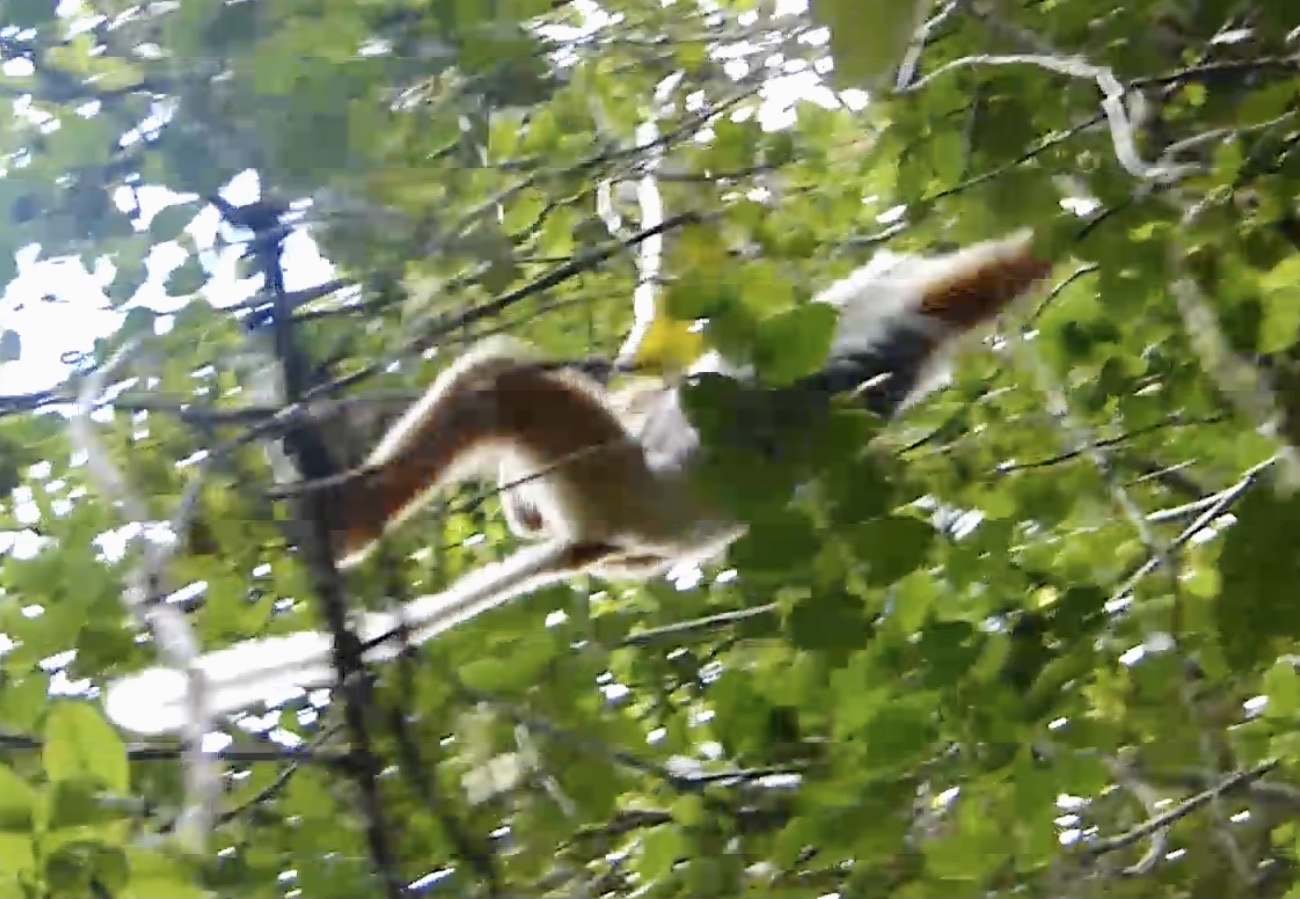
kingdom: Animalia
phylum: Chordata
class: Mammalia
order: Primates
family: Indriidae
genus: Propithecus
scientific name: Propithecus diadema
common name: Diademed sifaka
